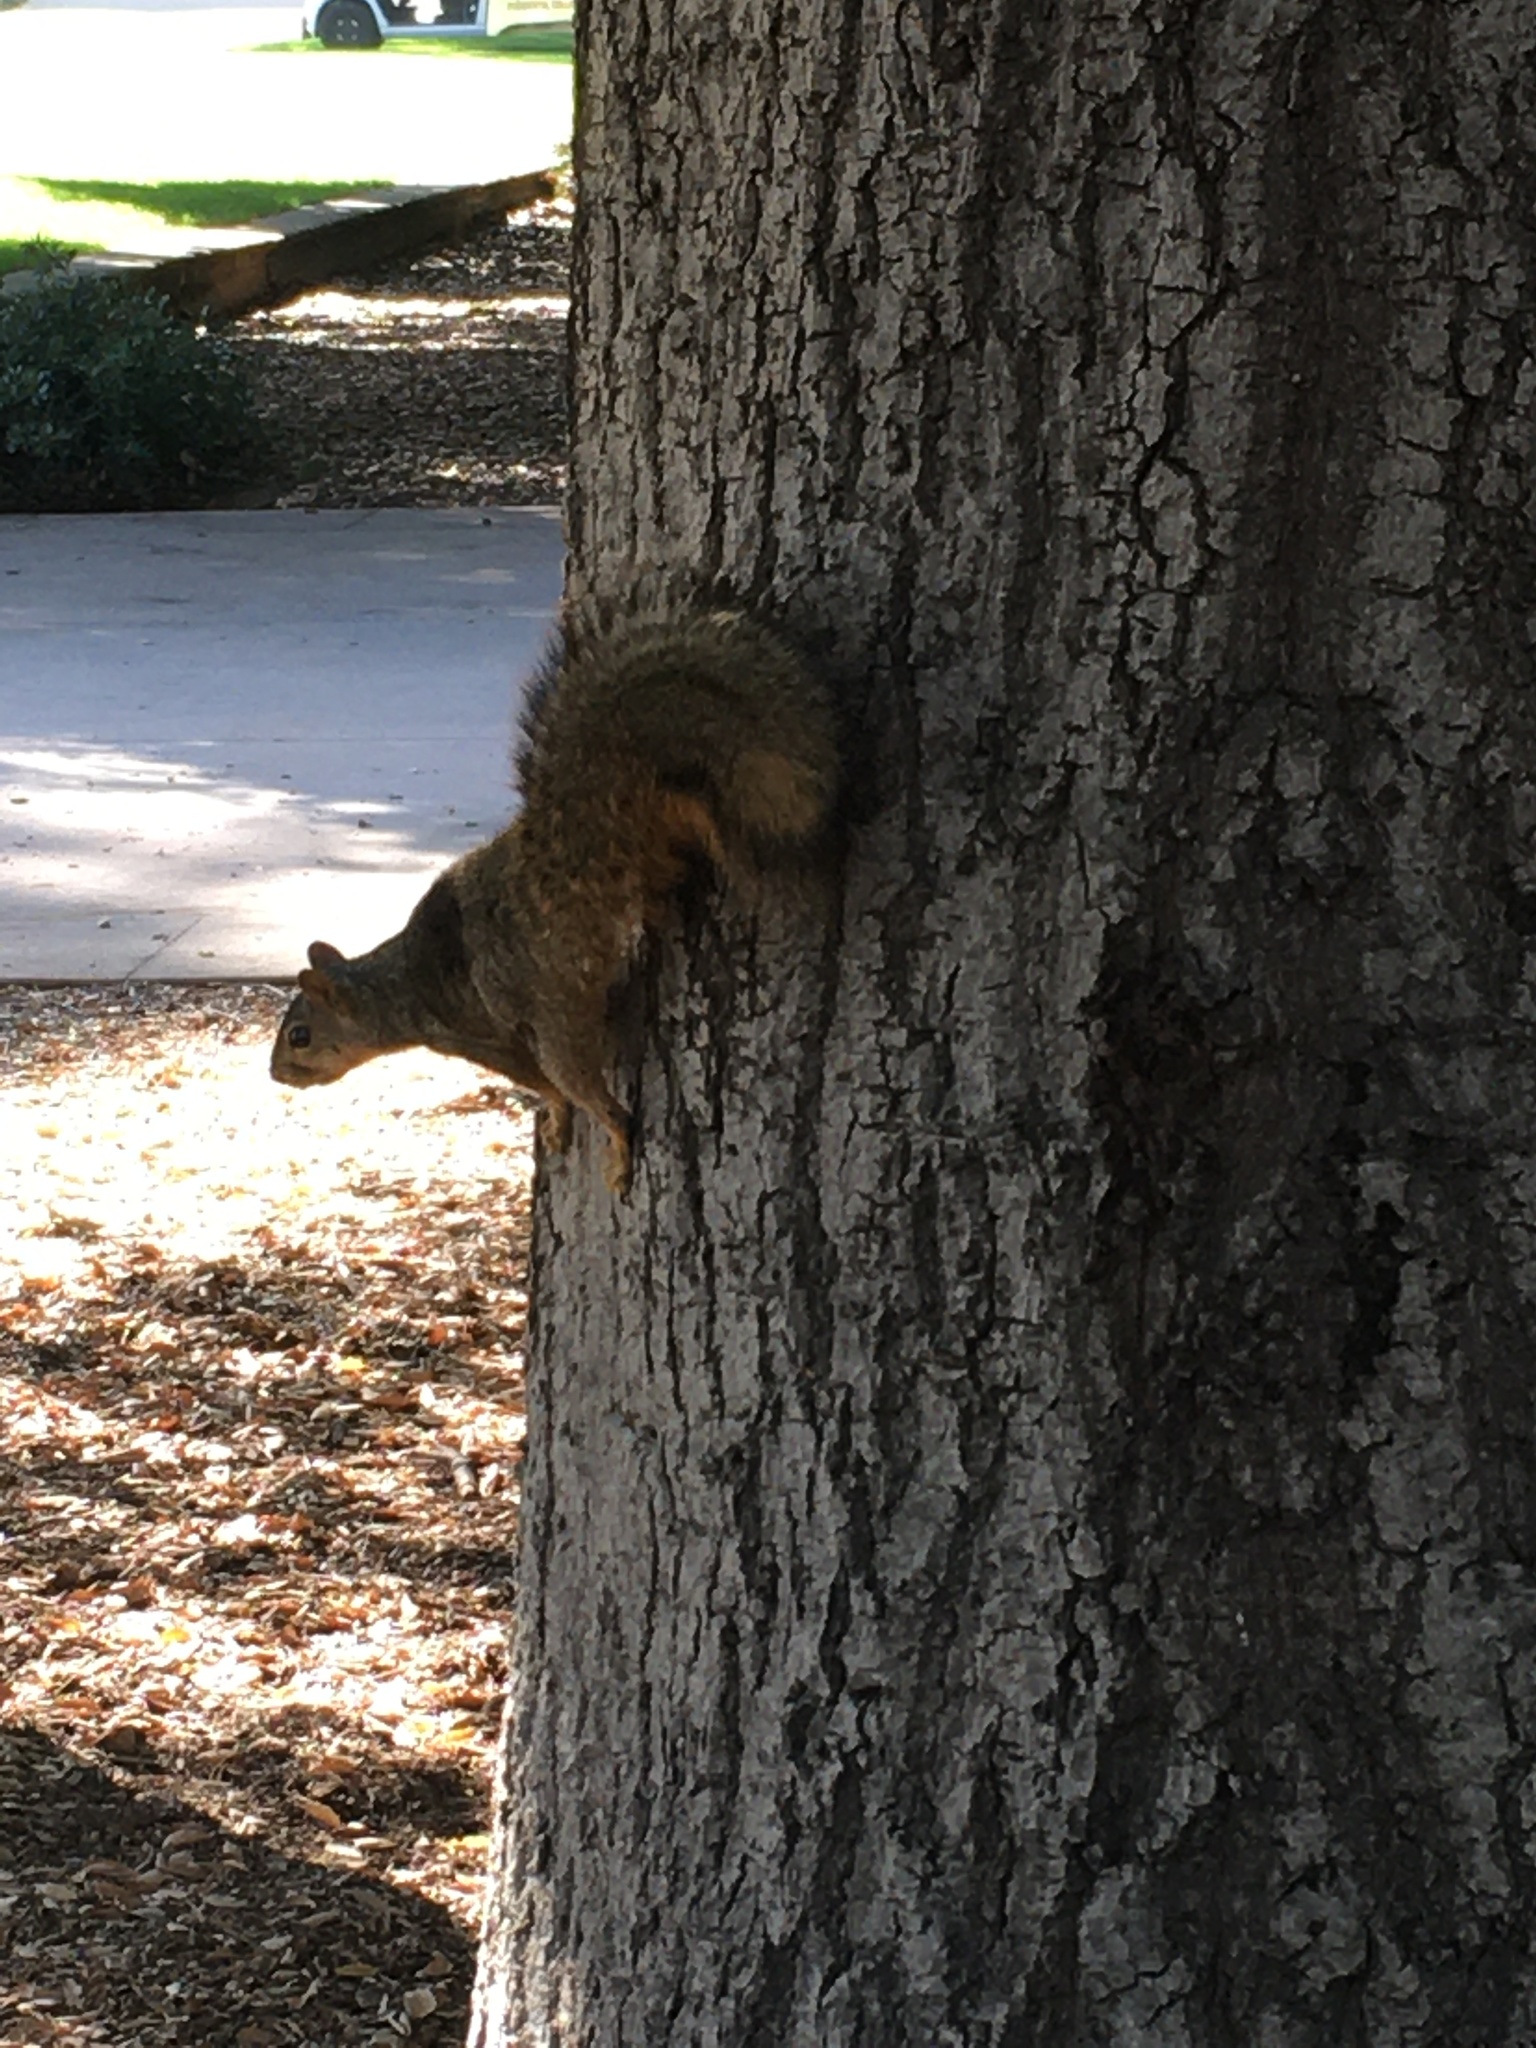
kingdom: Animalia
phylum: Chordata
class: Mammalia
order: Rodentia
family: Sciuridae
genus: Sciurus
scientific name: Sciurus niger
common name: Fox squirrel
